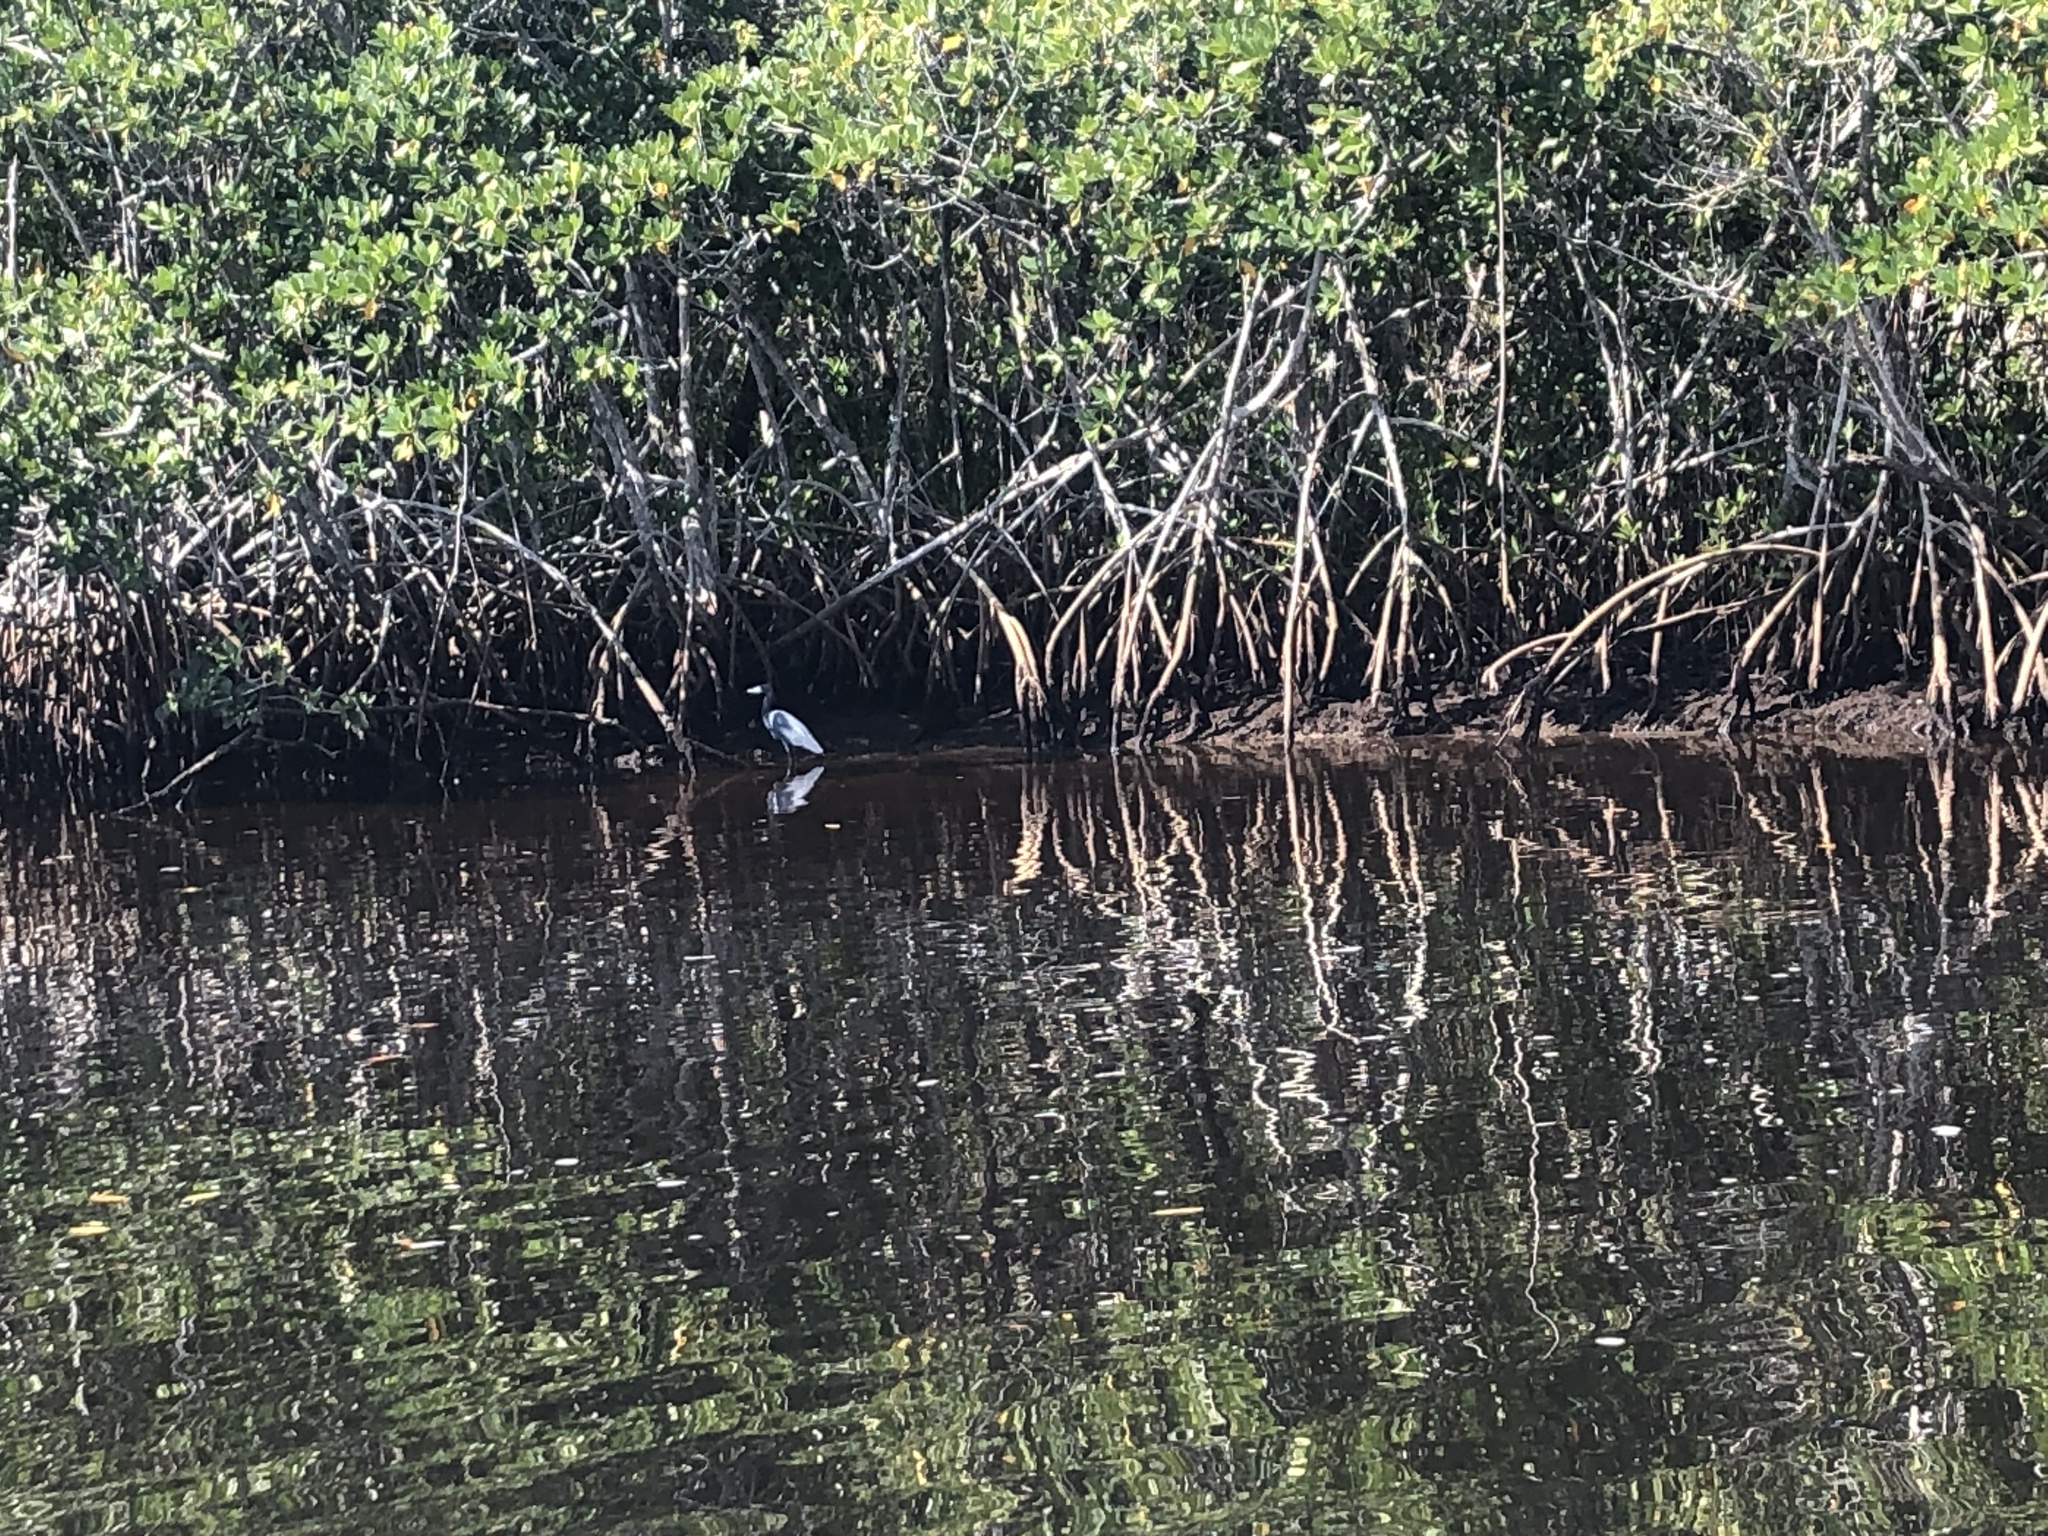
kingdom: Animalia
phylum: Chordata
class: Aves
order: Pelecaniformes
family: Ardeidae
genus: Egretta
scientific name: Egretta caerulea
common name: Little blue heron
